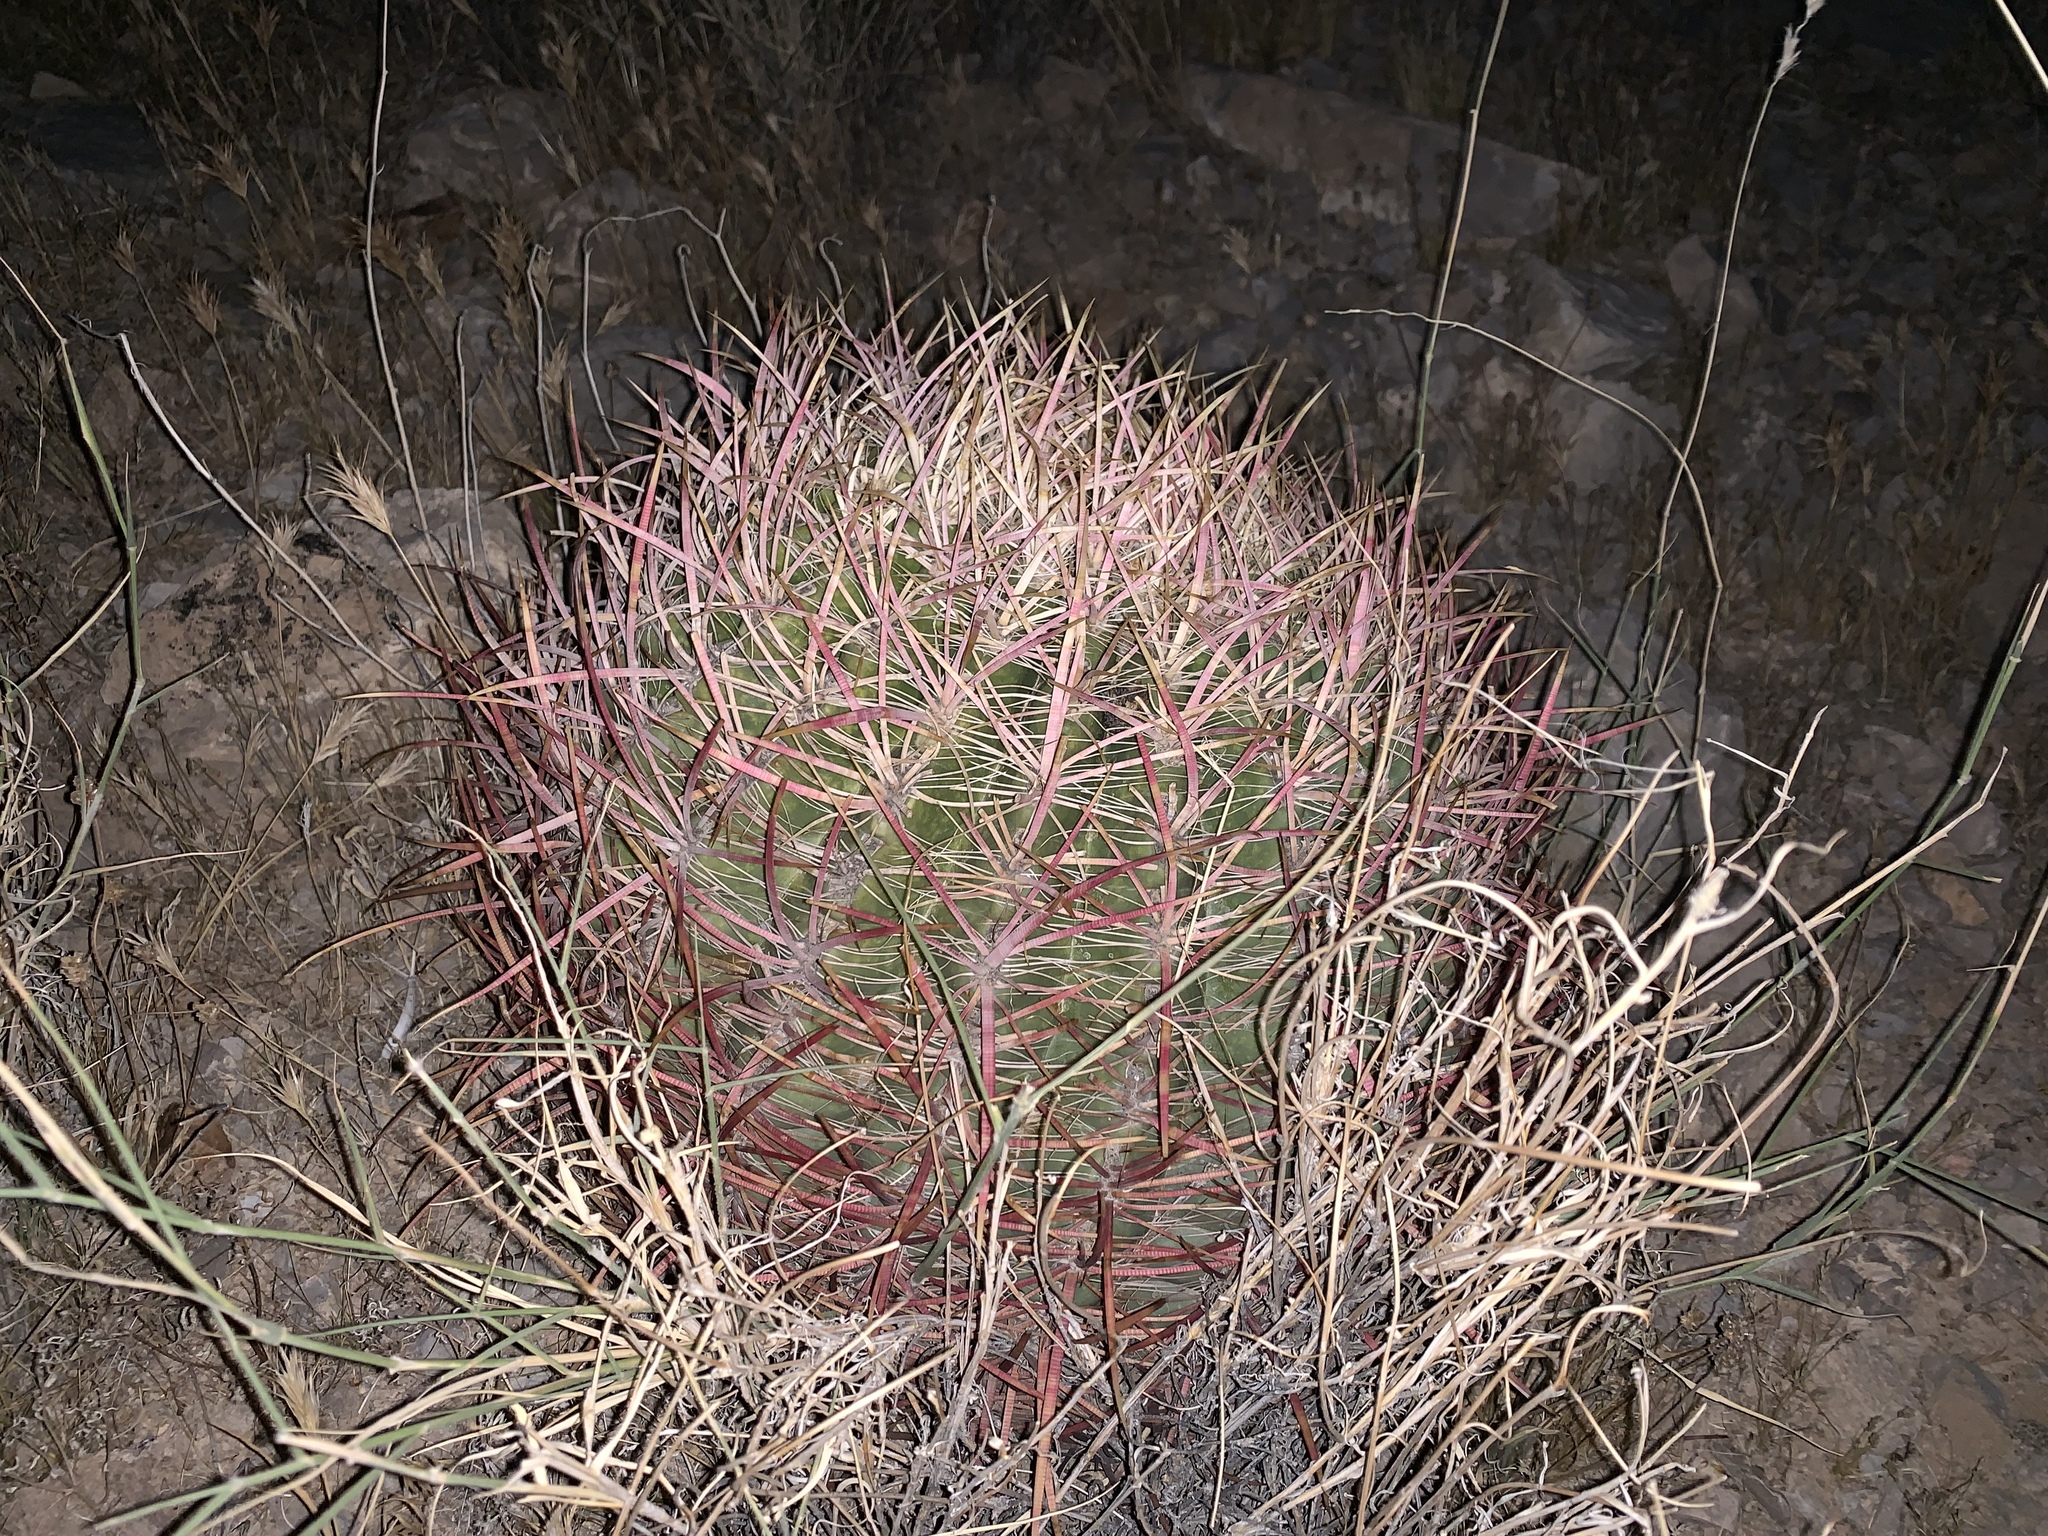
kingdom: Plantae
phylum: Tracheophyta
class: Magnoliopsida
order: Caryophyllales
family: Cactaceae
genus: Ferocactus
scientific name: Ferocactus cylindraceus
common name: California barrel cactus
